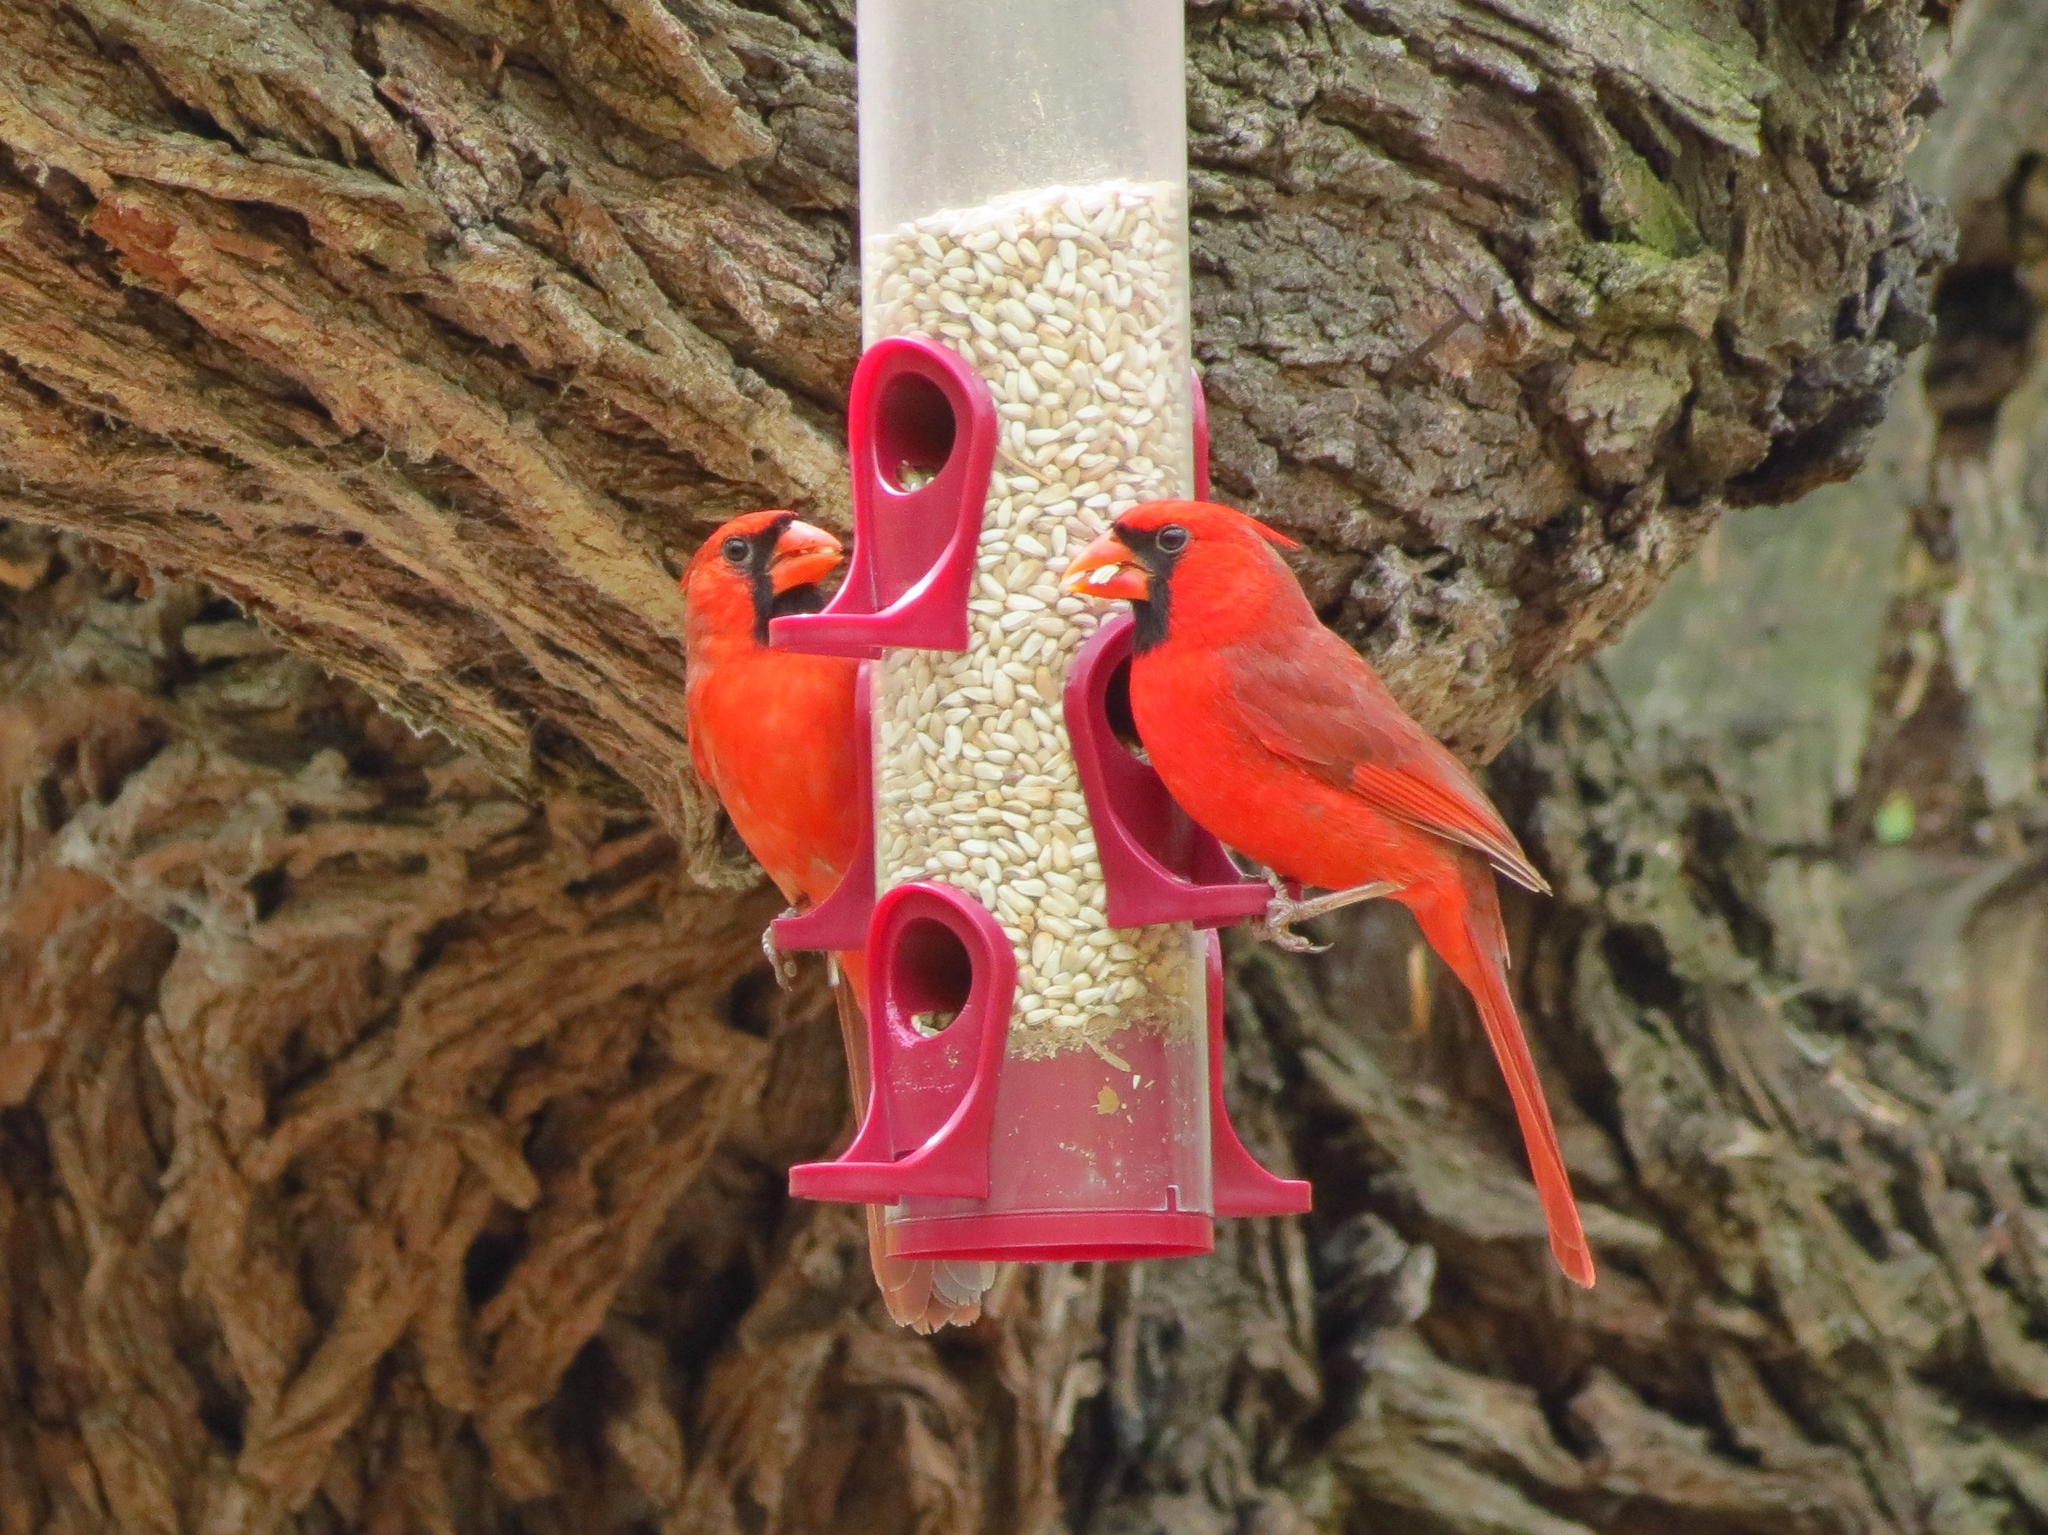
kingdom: Animalia
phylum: Chordata
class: Aves
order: Passeriformes
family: Cardinalidae
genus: Cardinalis
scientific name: Cardinalis cardinalis
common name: Northern cardinal
